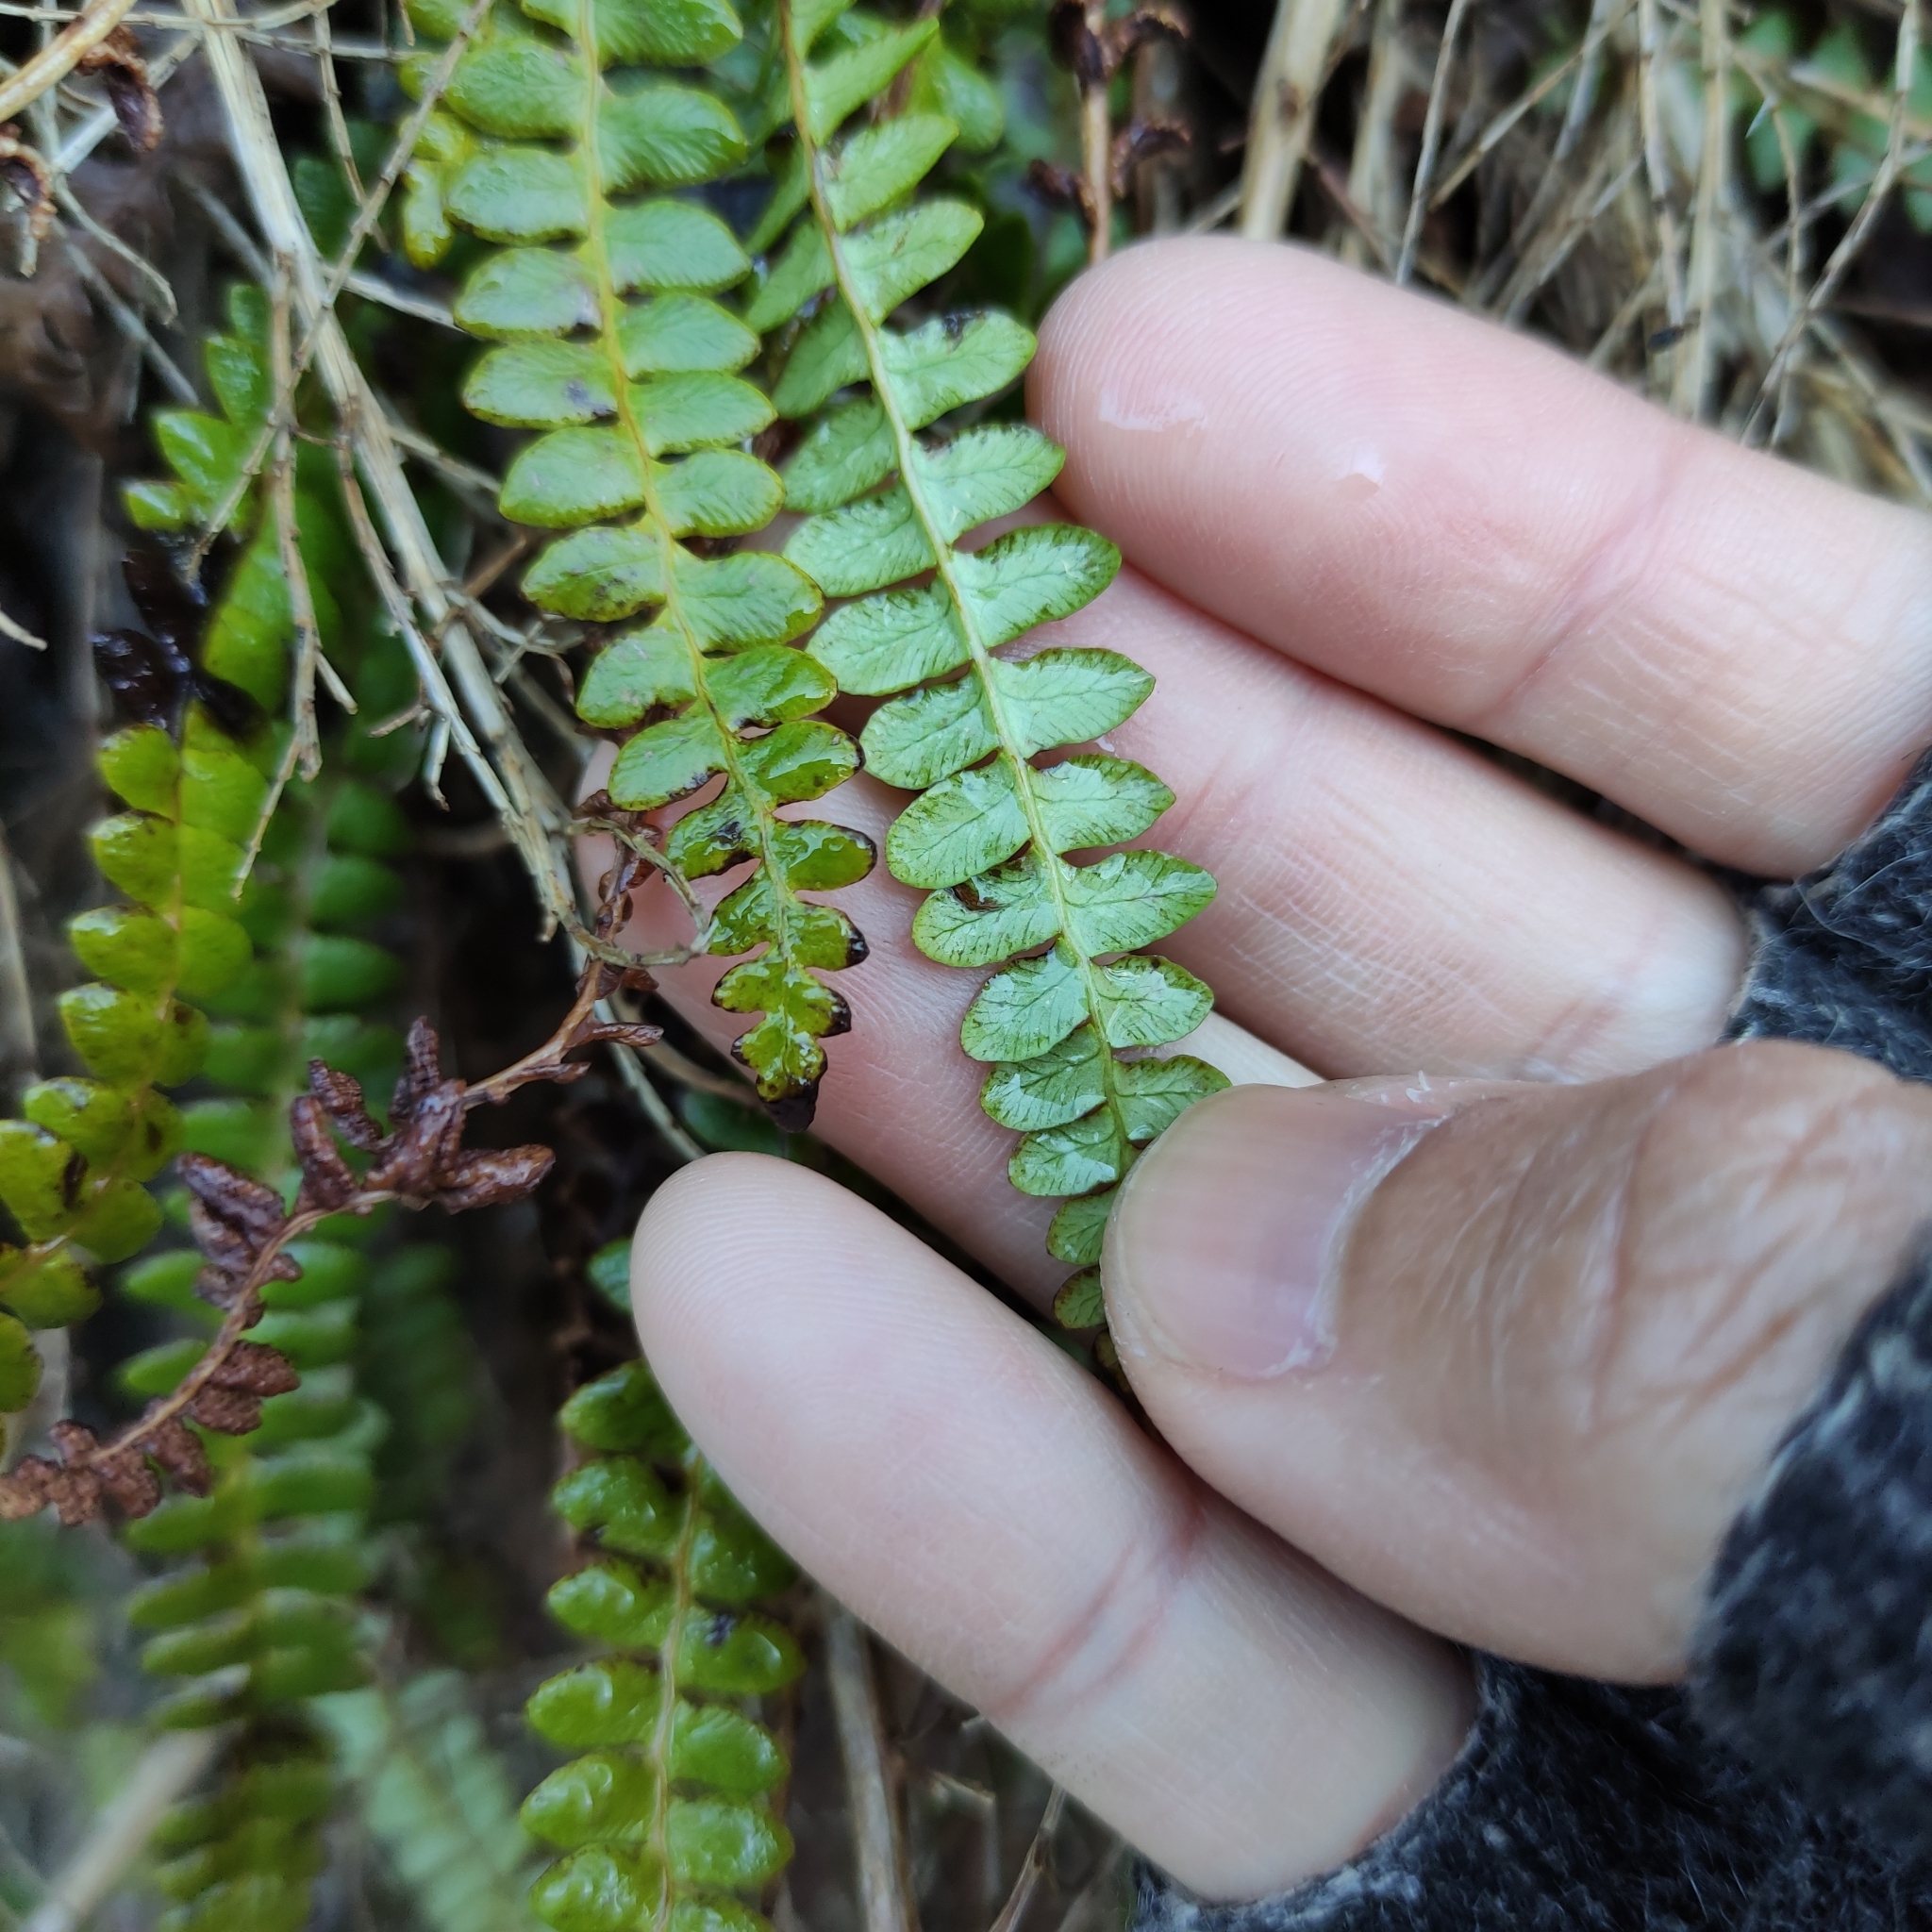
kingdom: Plantae
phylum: Tracheophyta
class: Polypodiopsida
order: Polypodiales
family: Blechnaceae
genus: Austroblechnum
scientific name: Austroblechnum penna-marina
